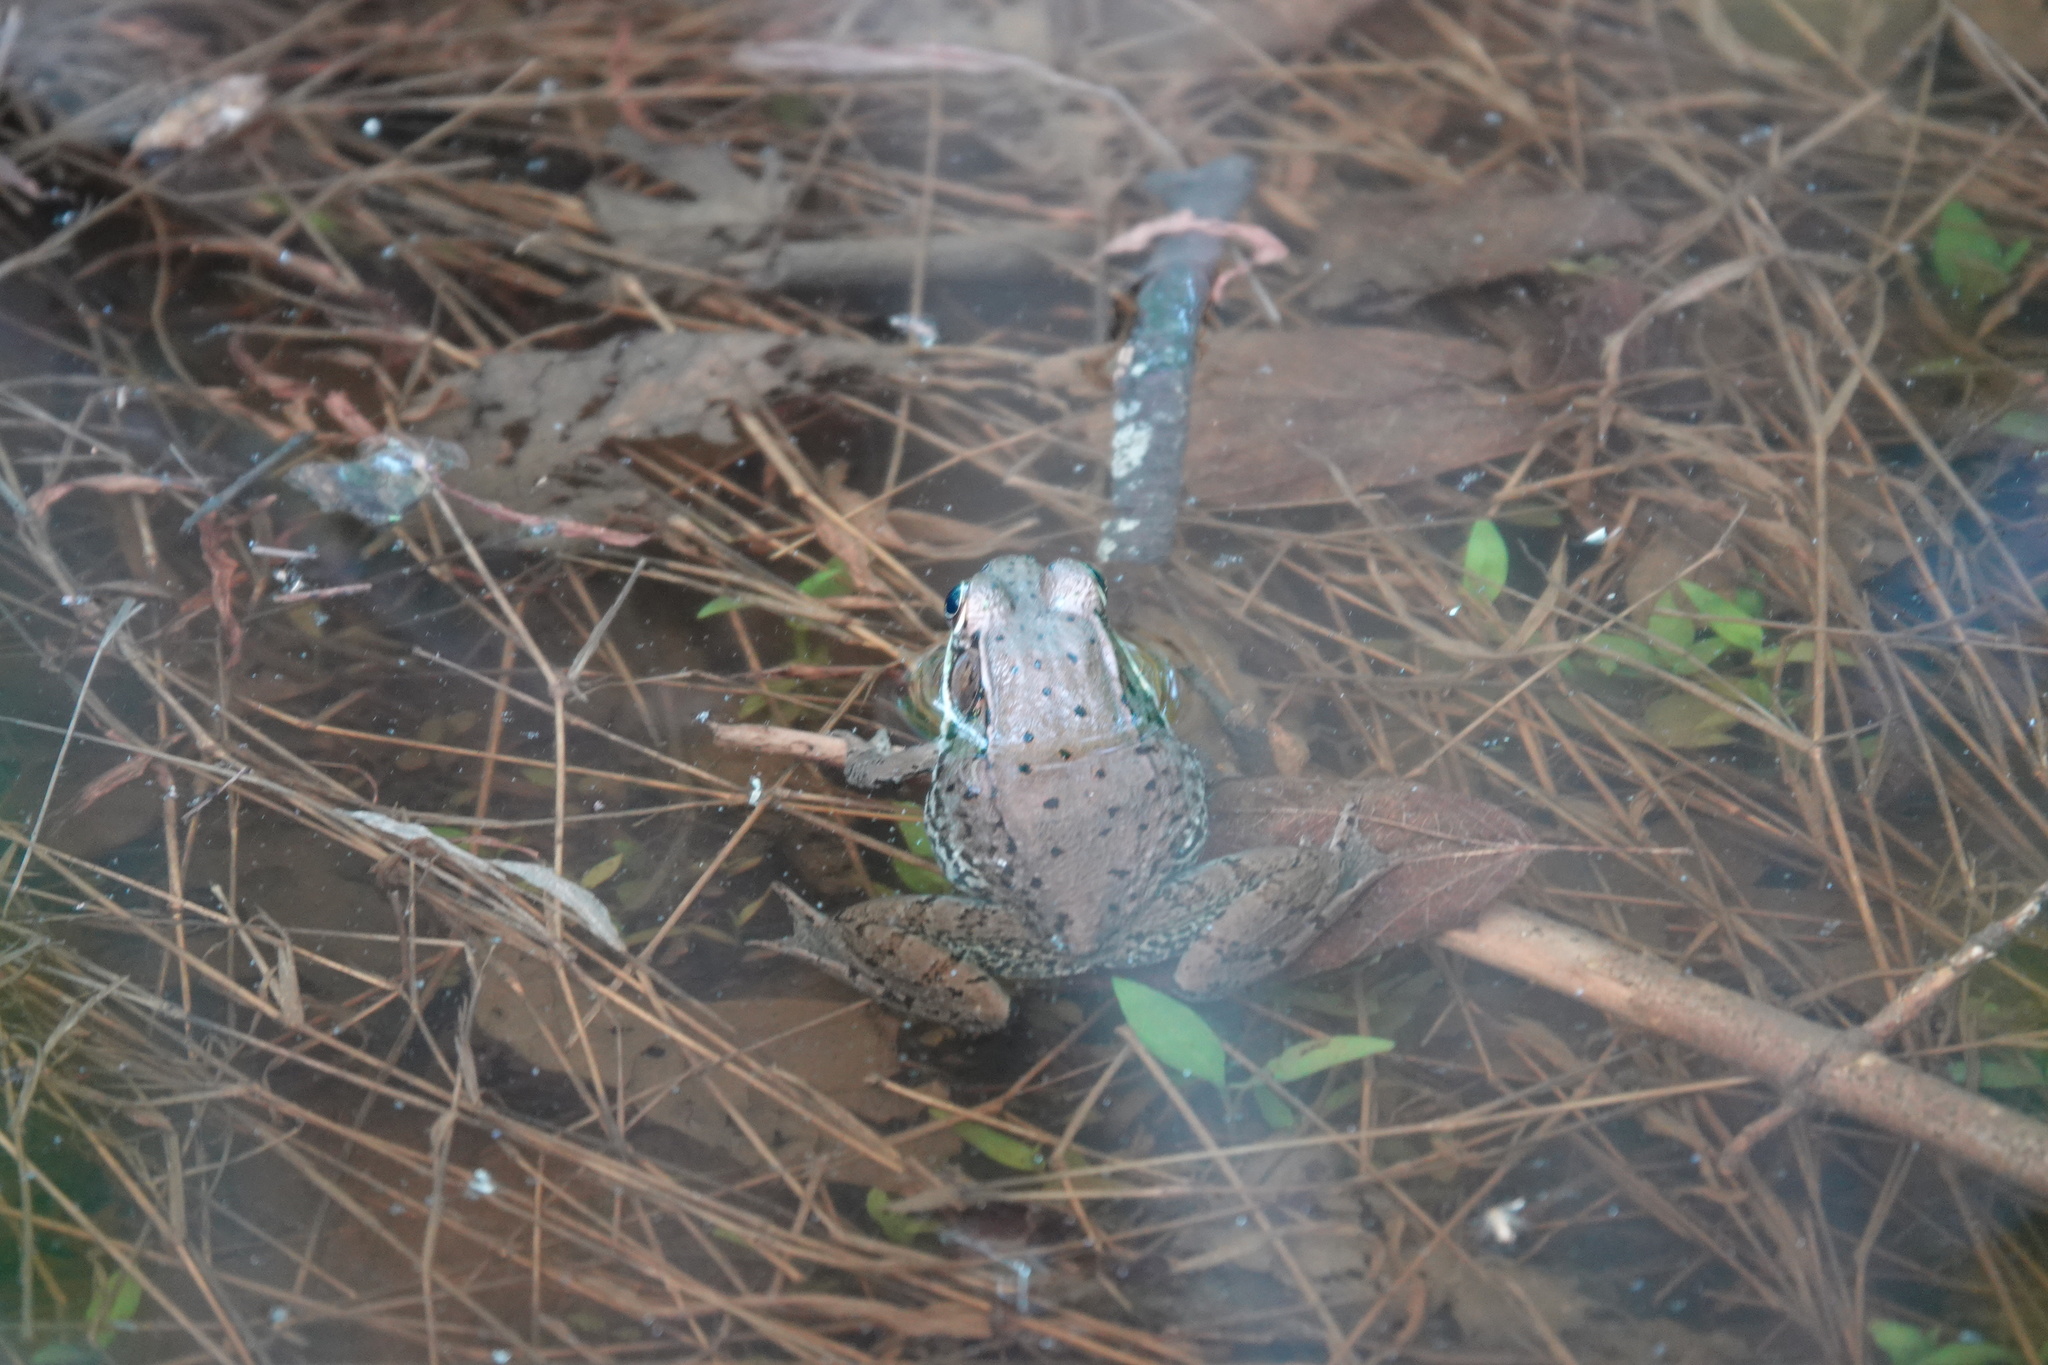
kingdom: Animalia
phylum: Chordata
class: Amphibia
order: Anura
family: Ranidae
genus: Lithobates
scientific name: Lithobates clamitans
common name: Green frog
